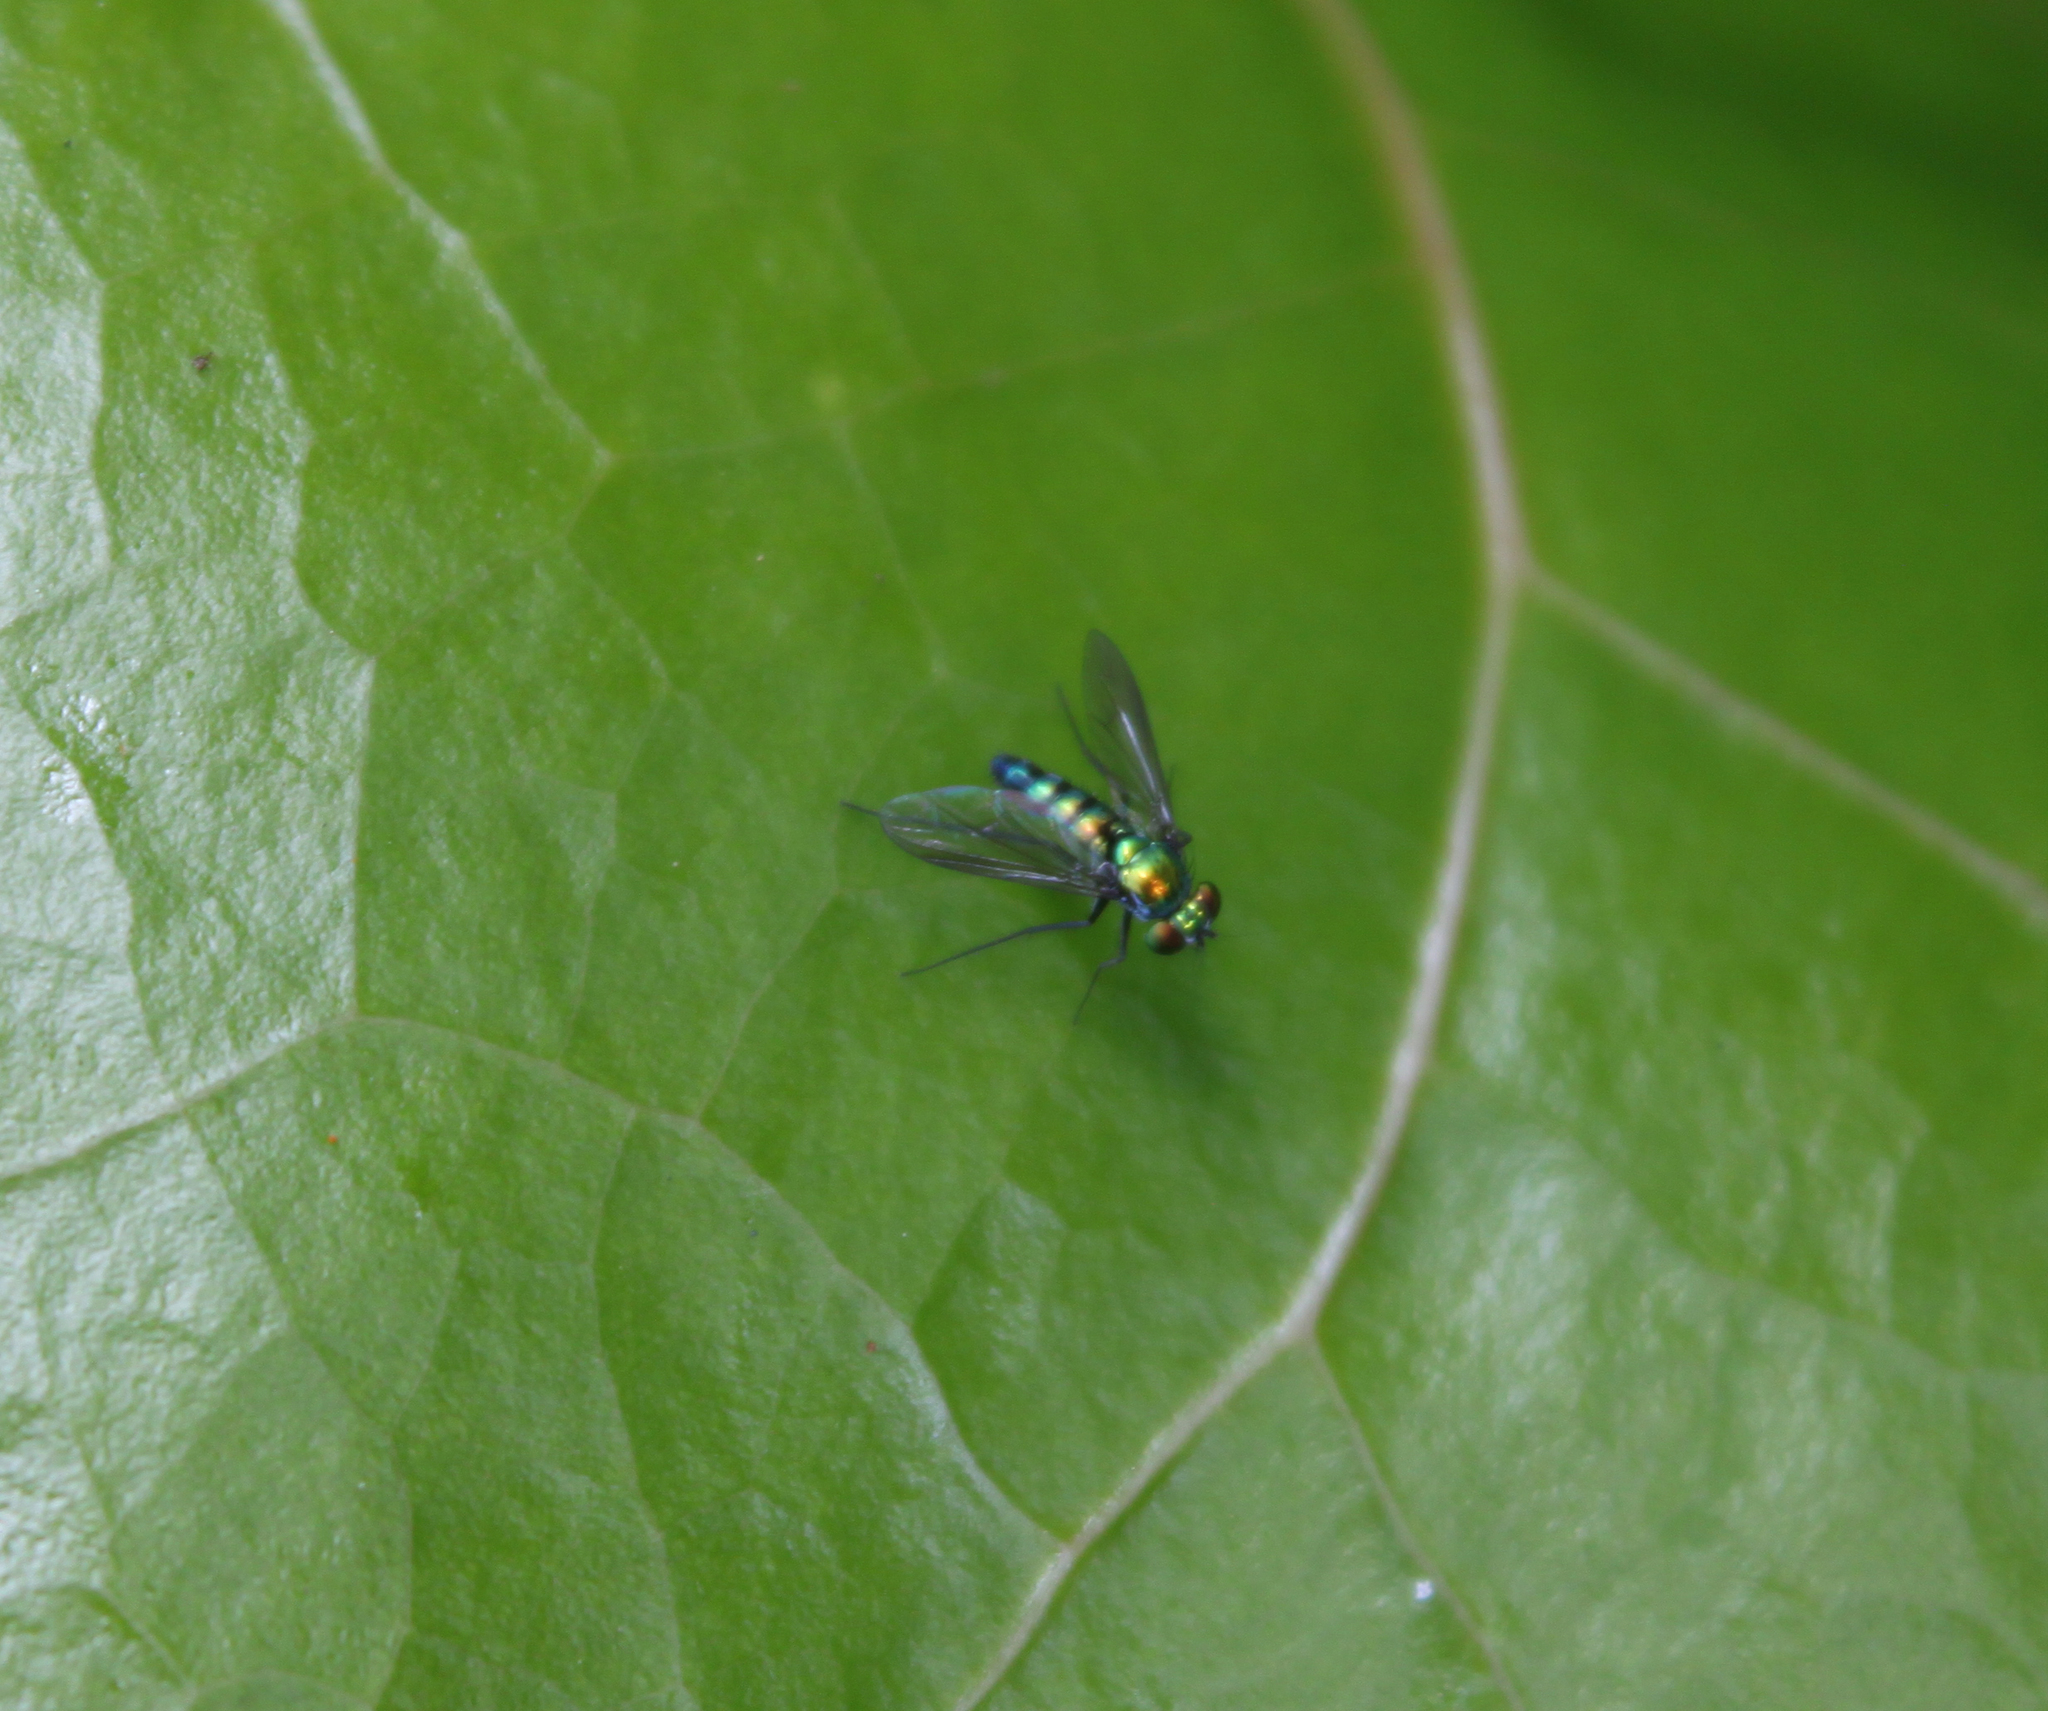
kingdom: Animalia
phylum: Arthropoda
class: Insecta
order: Diptera
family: Dolichopodidae
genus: Condylostylus
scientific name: Condylostylus longicornis
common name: Long-legged fly
